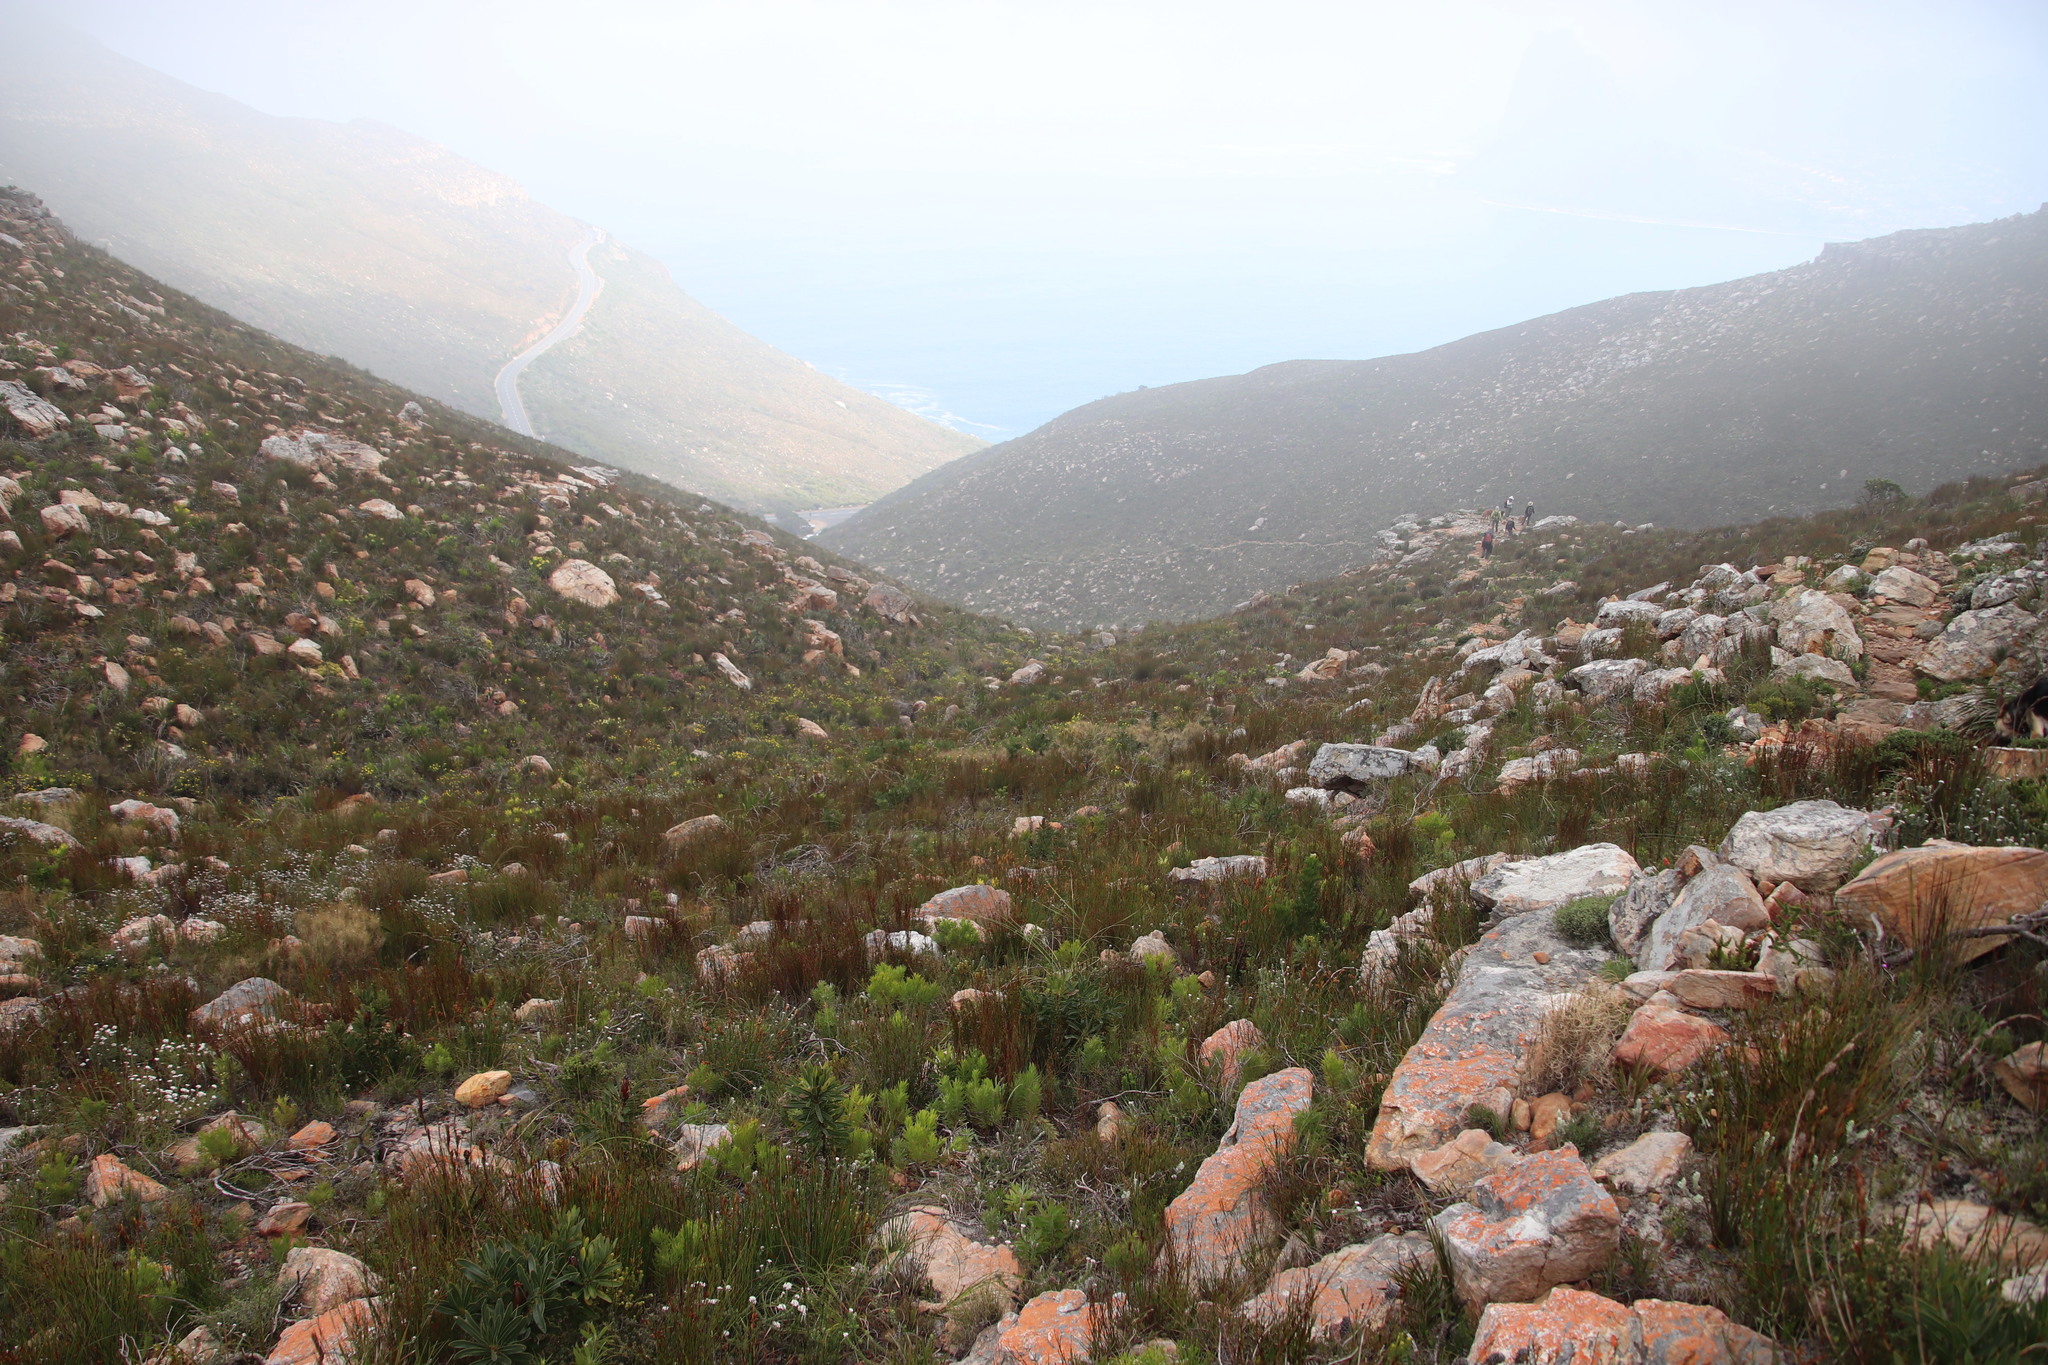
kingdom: Plantae
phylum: Tracheophyta
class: Magnoliopsida
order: Proteales
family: Proteaceae
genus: Leucadendron
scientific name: Leucadendron xanthoconus
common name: Sickle-leaf conebush
